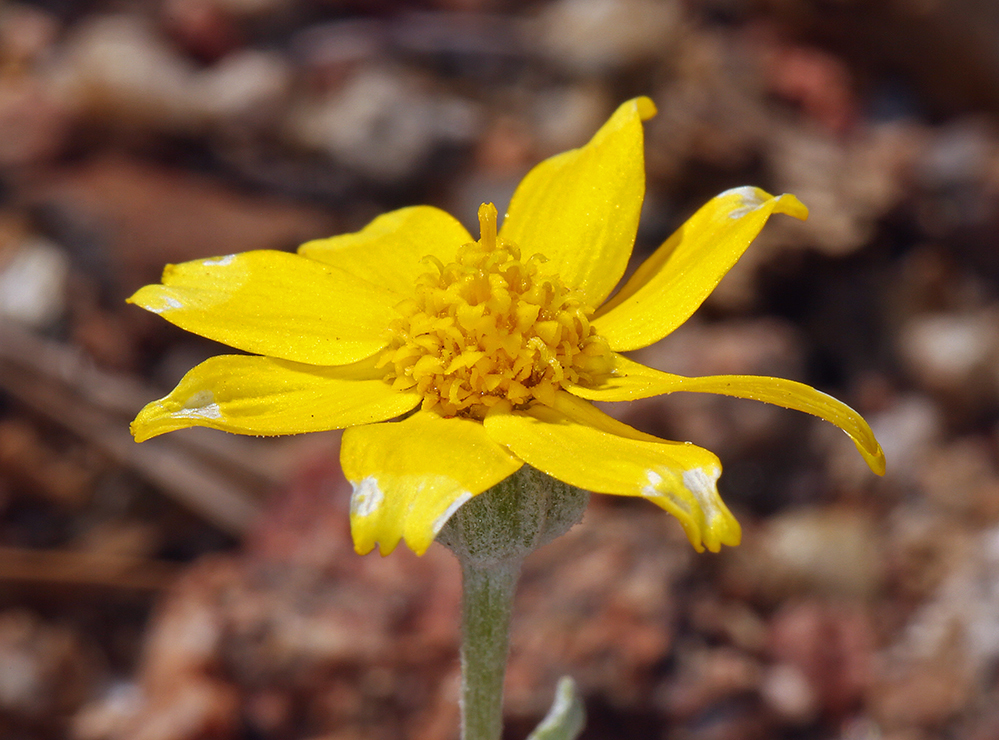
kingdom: Plantae
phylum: Tracheophyta
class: Magnoliopsida
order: Asterales
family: Asteraceae
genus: Eriophyllum
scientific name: Eriophyllum lanatum
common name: Common woolly-sunflower
